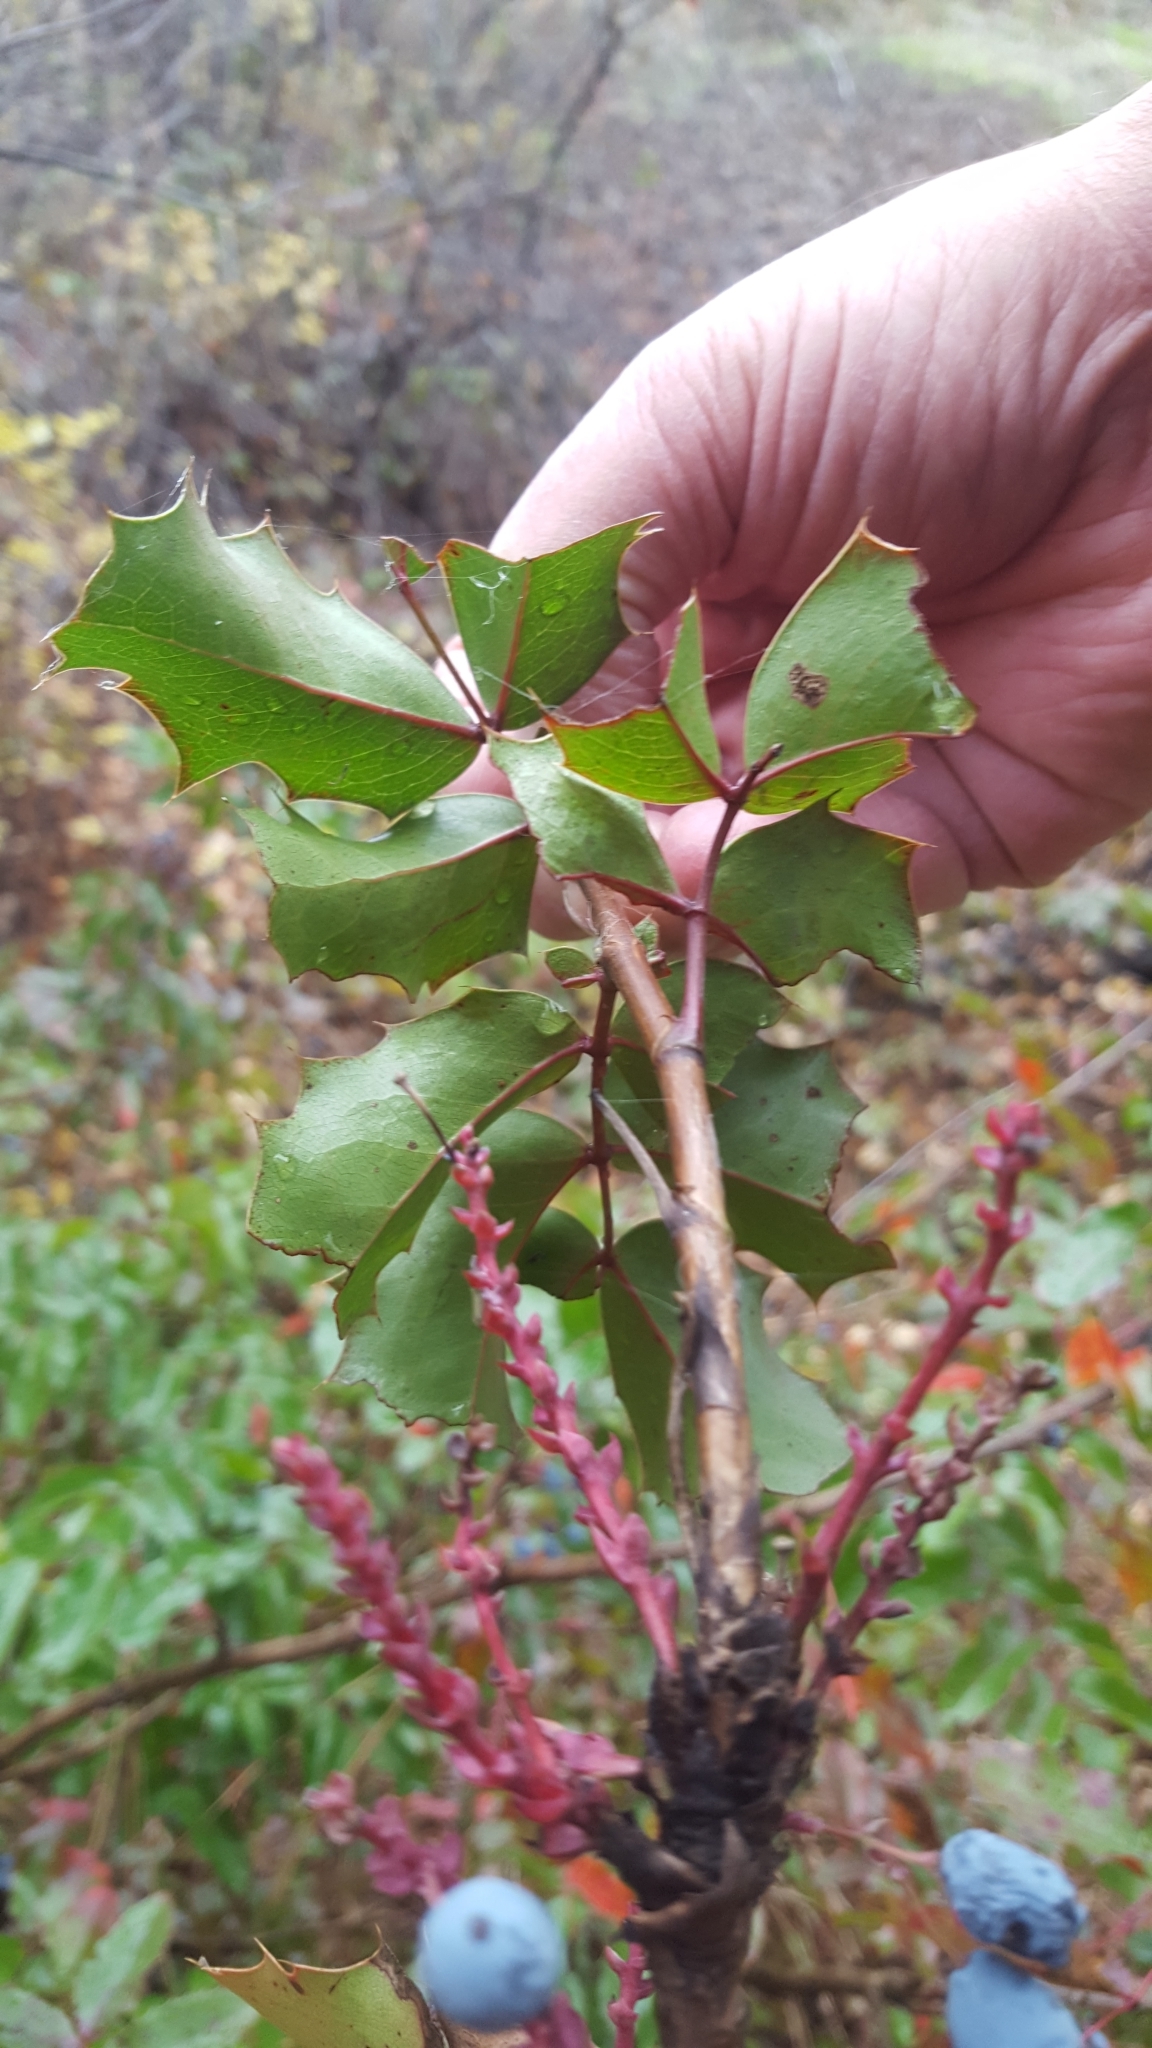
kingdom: Plantae
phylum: Tracheophyta
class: Magnoliopsida
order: Ranunculales
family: Berberidaceae
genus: Mahonia
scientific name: Mahonia aquifolium
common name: Oregon-grape
